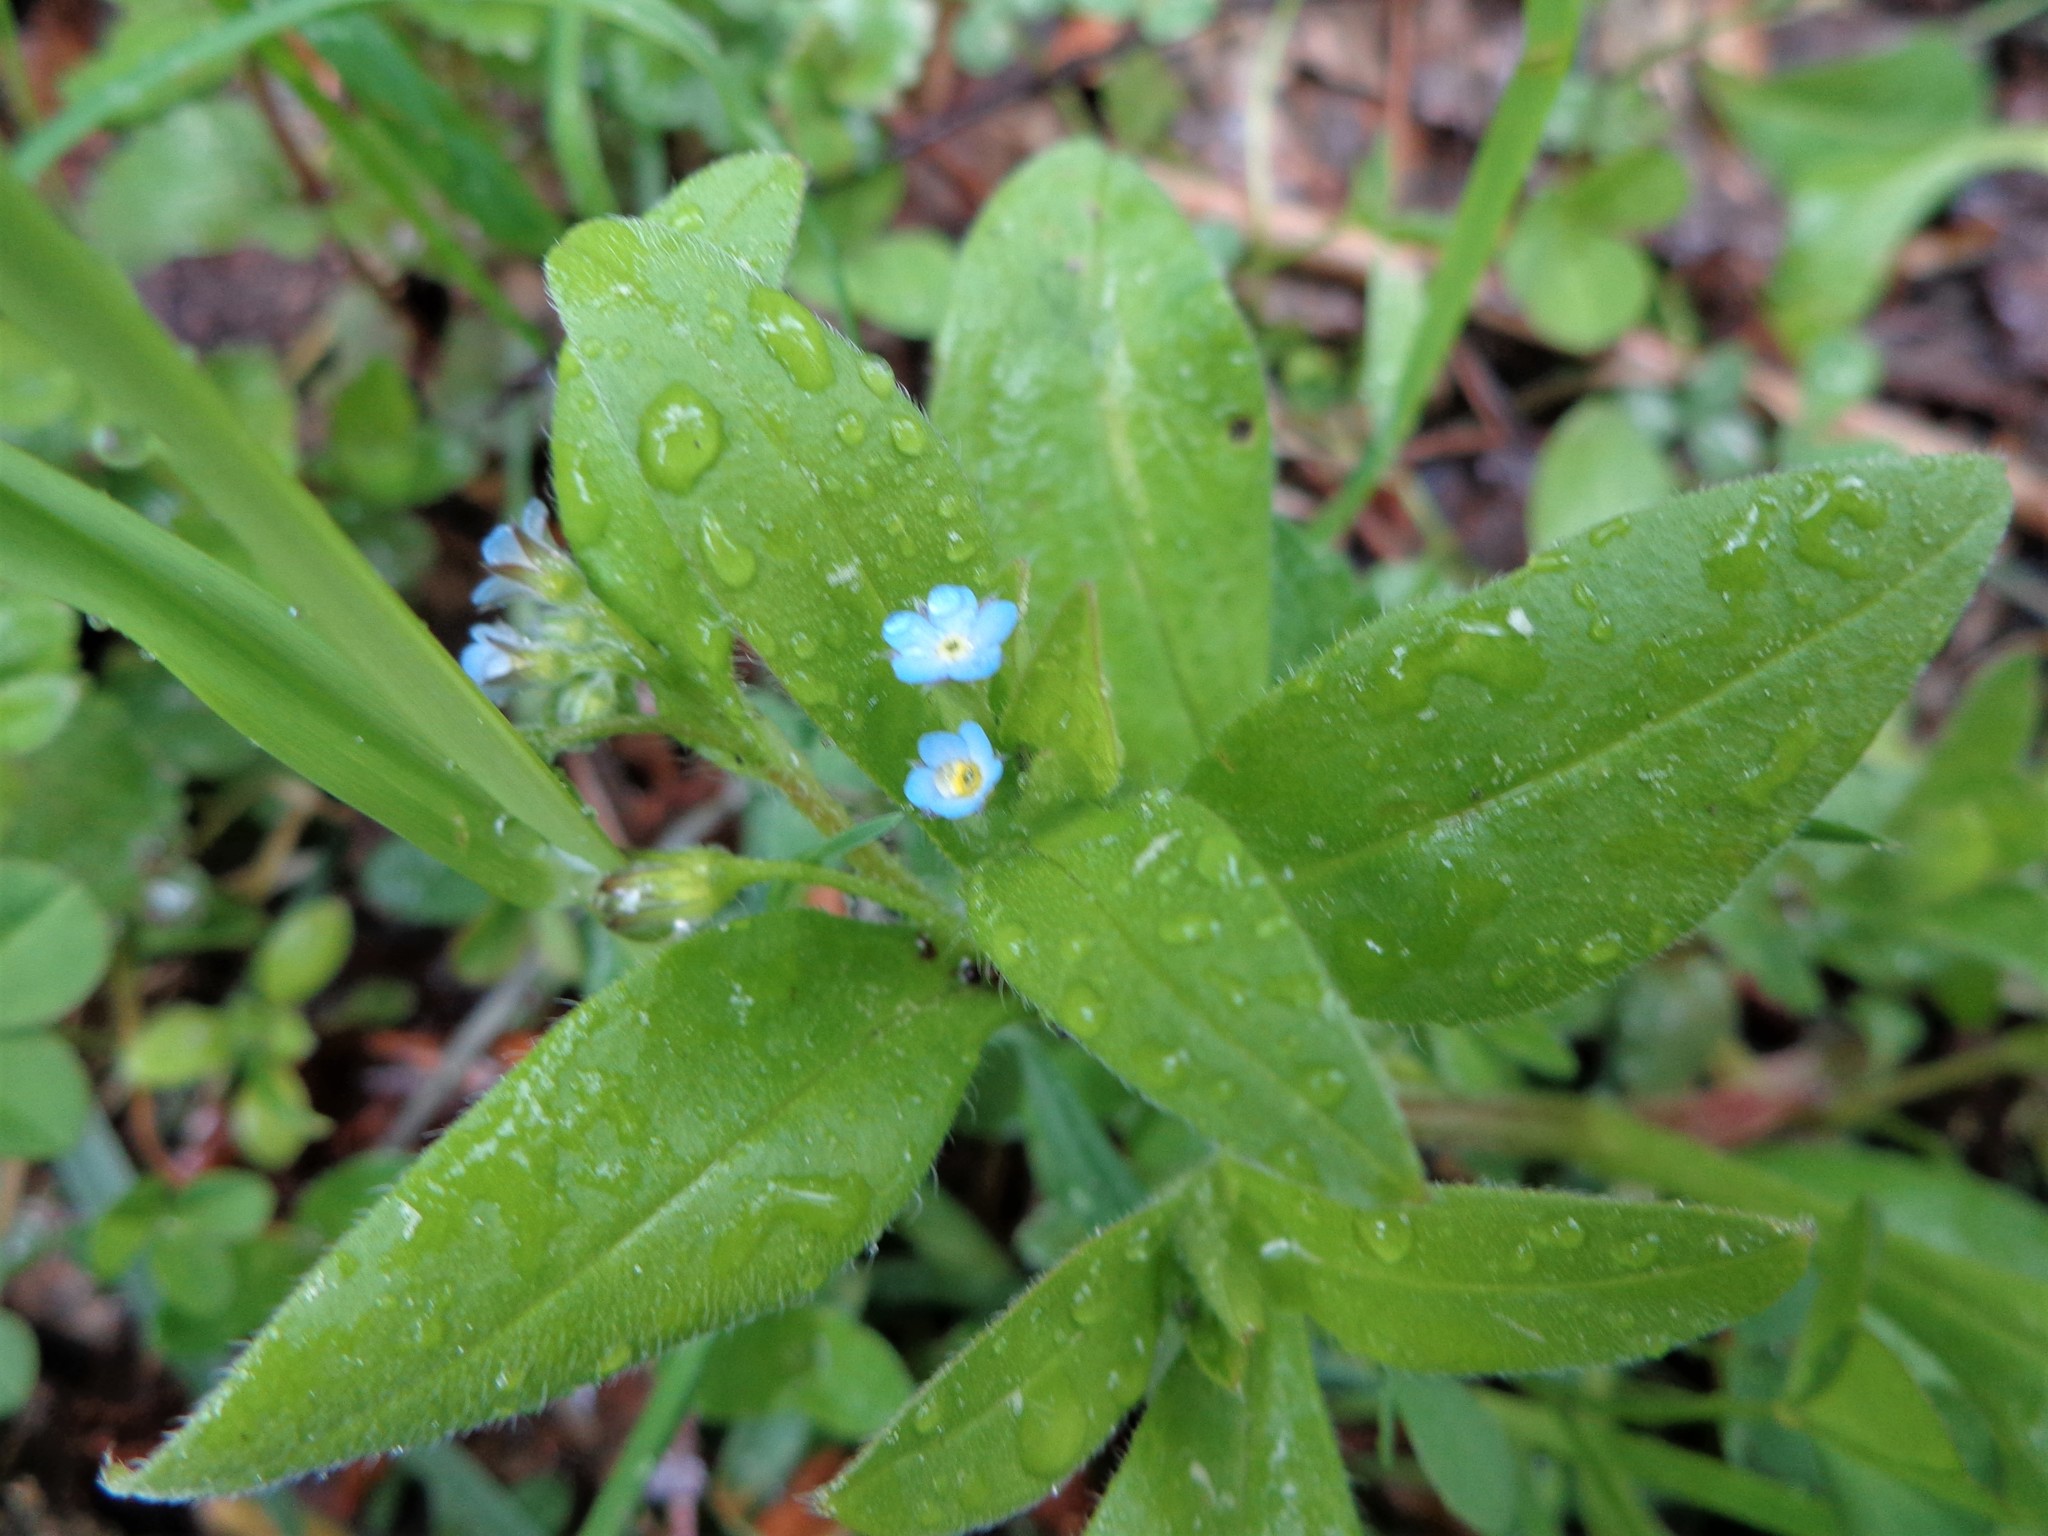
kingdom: Plantae
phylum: Tracheophyta
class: Magnoliopsida
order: Boraginales
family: Boraginaceae
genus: Myosotis
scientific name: Myosotis sparsiflora
